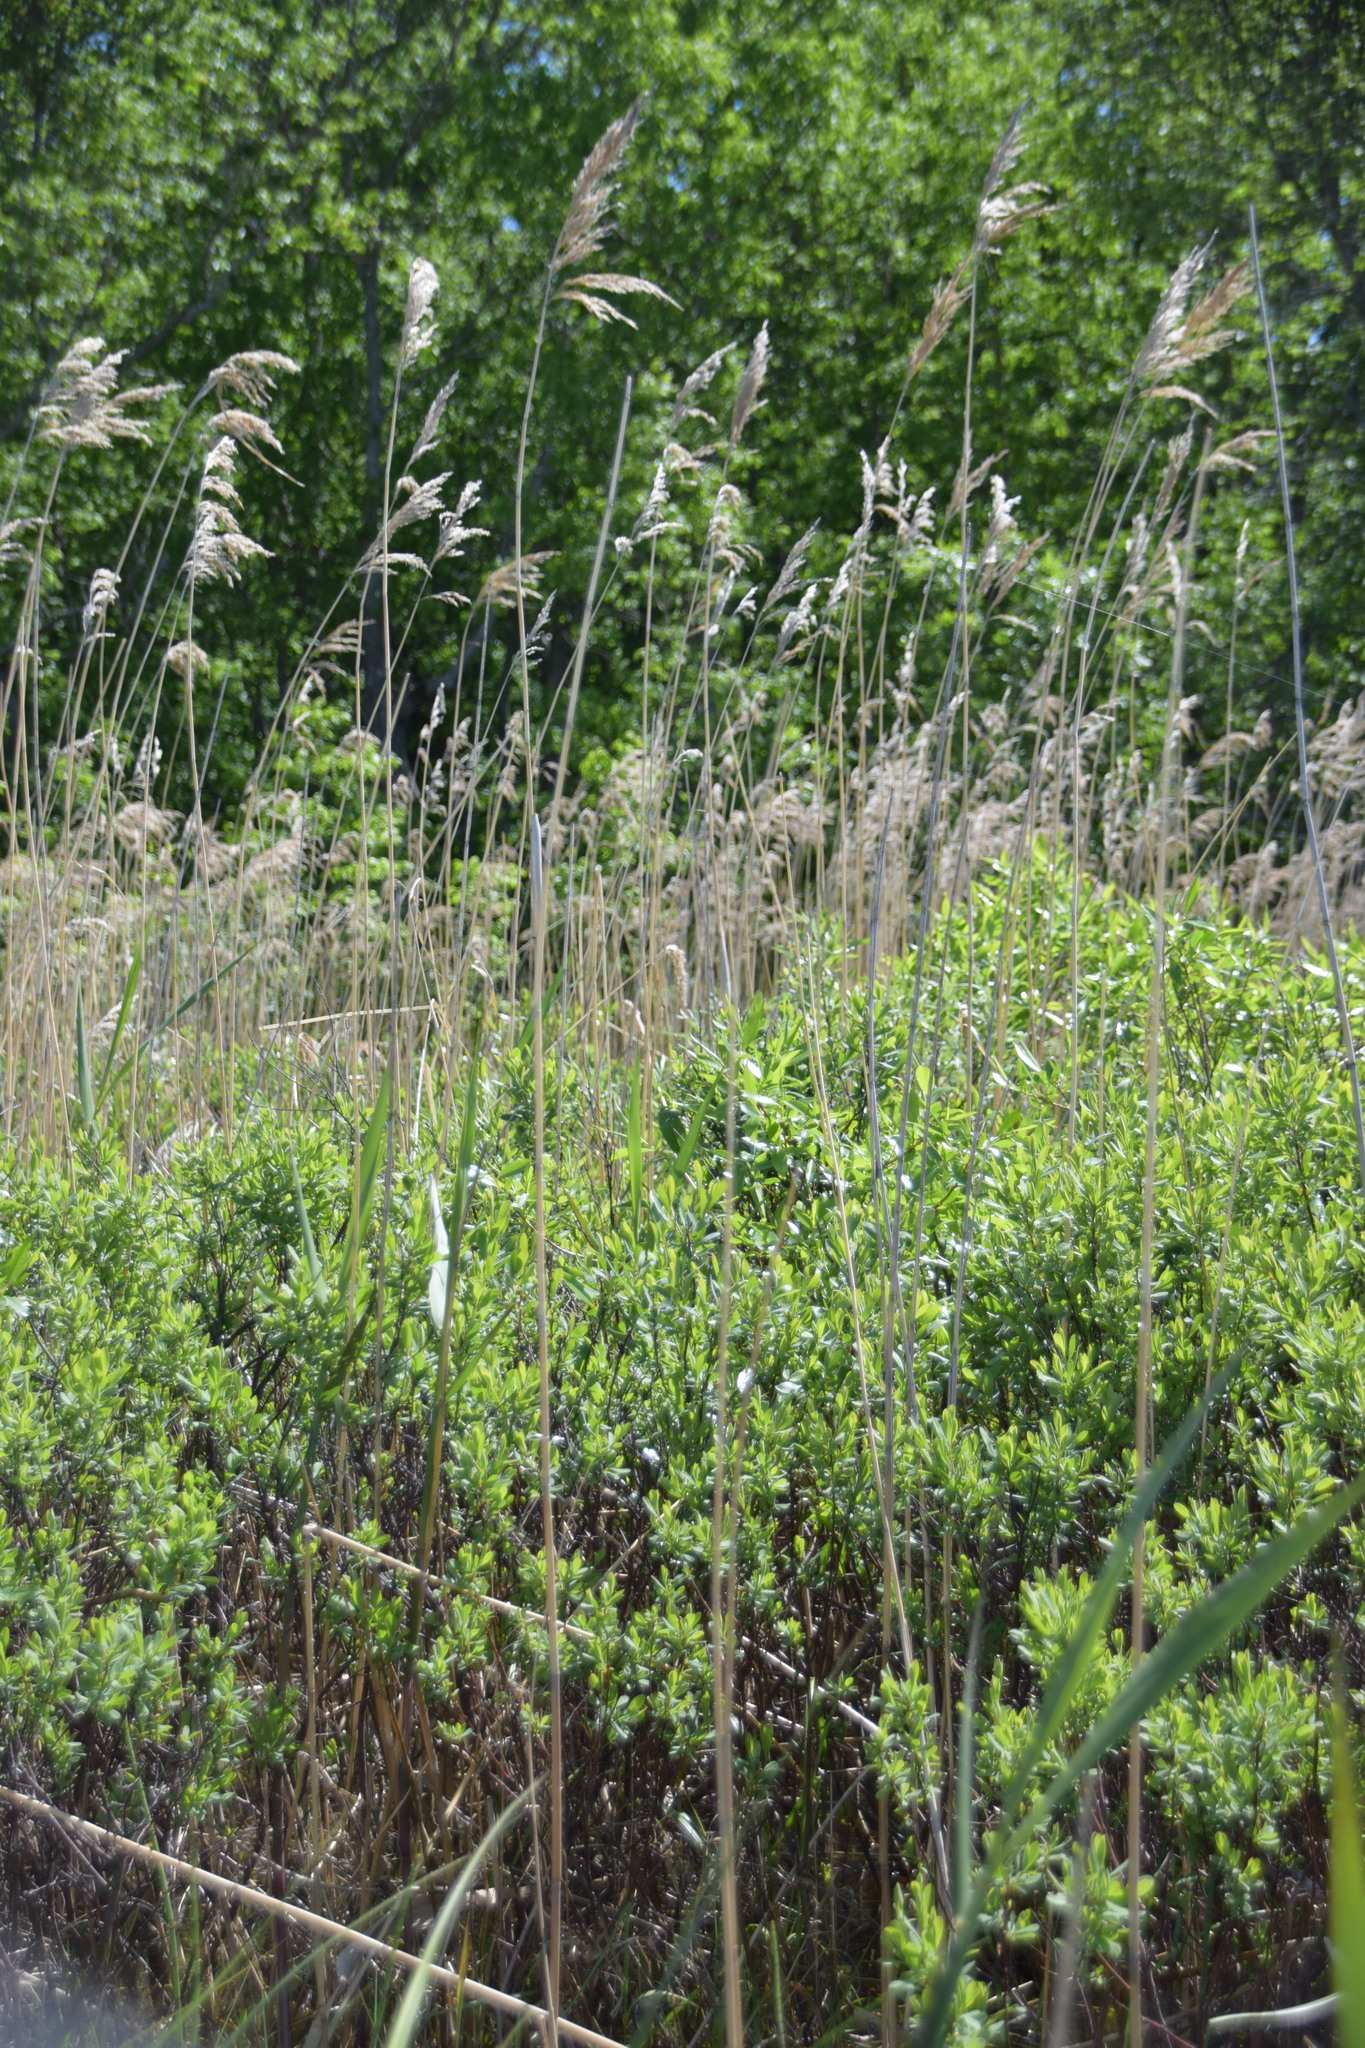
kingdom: Plantae
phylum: Tracheophyta
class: Liliopsida
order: Poales
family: Poaceae
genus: Phragmites
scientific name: Phragmites australis
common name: Common reed
